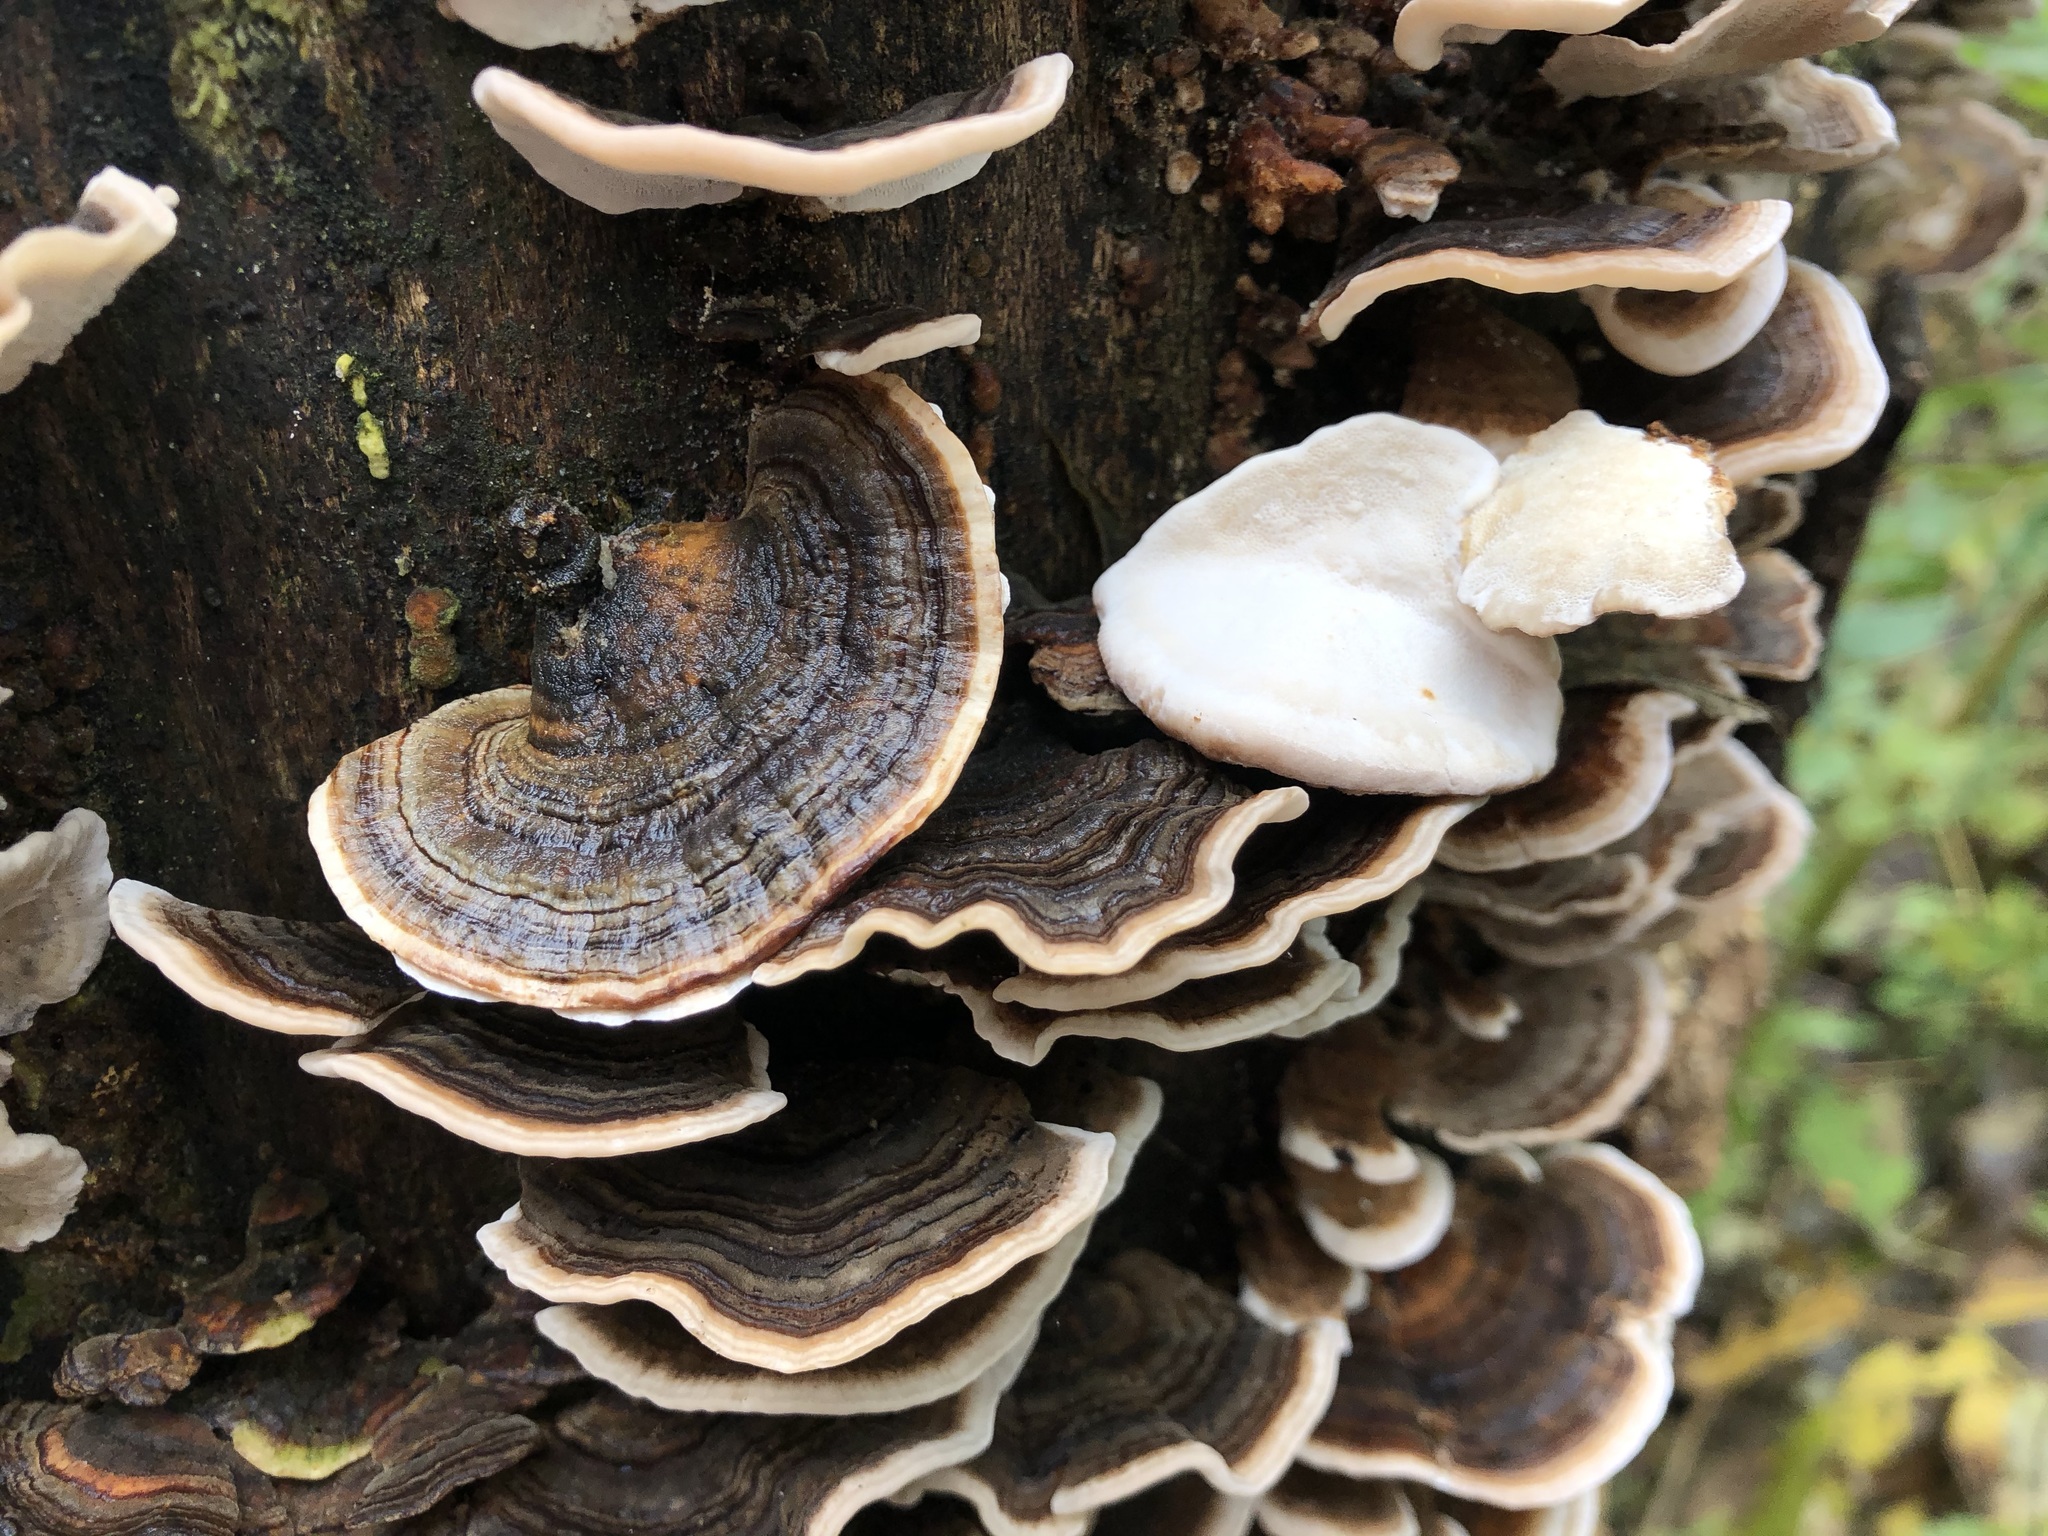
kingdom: Fungi
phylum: Basidiomycota
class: Agaricomycetes
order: Polyporales
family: Polyporaceae
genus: Trametes
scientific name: Trametes versicolor
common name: Turkeytail
